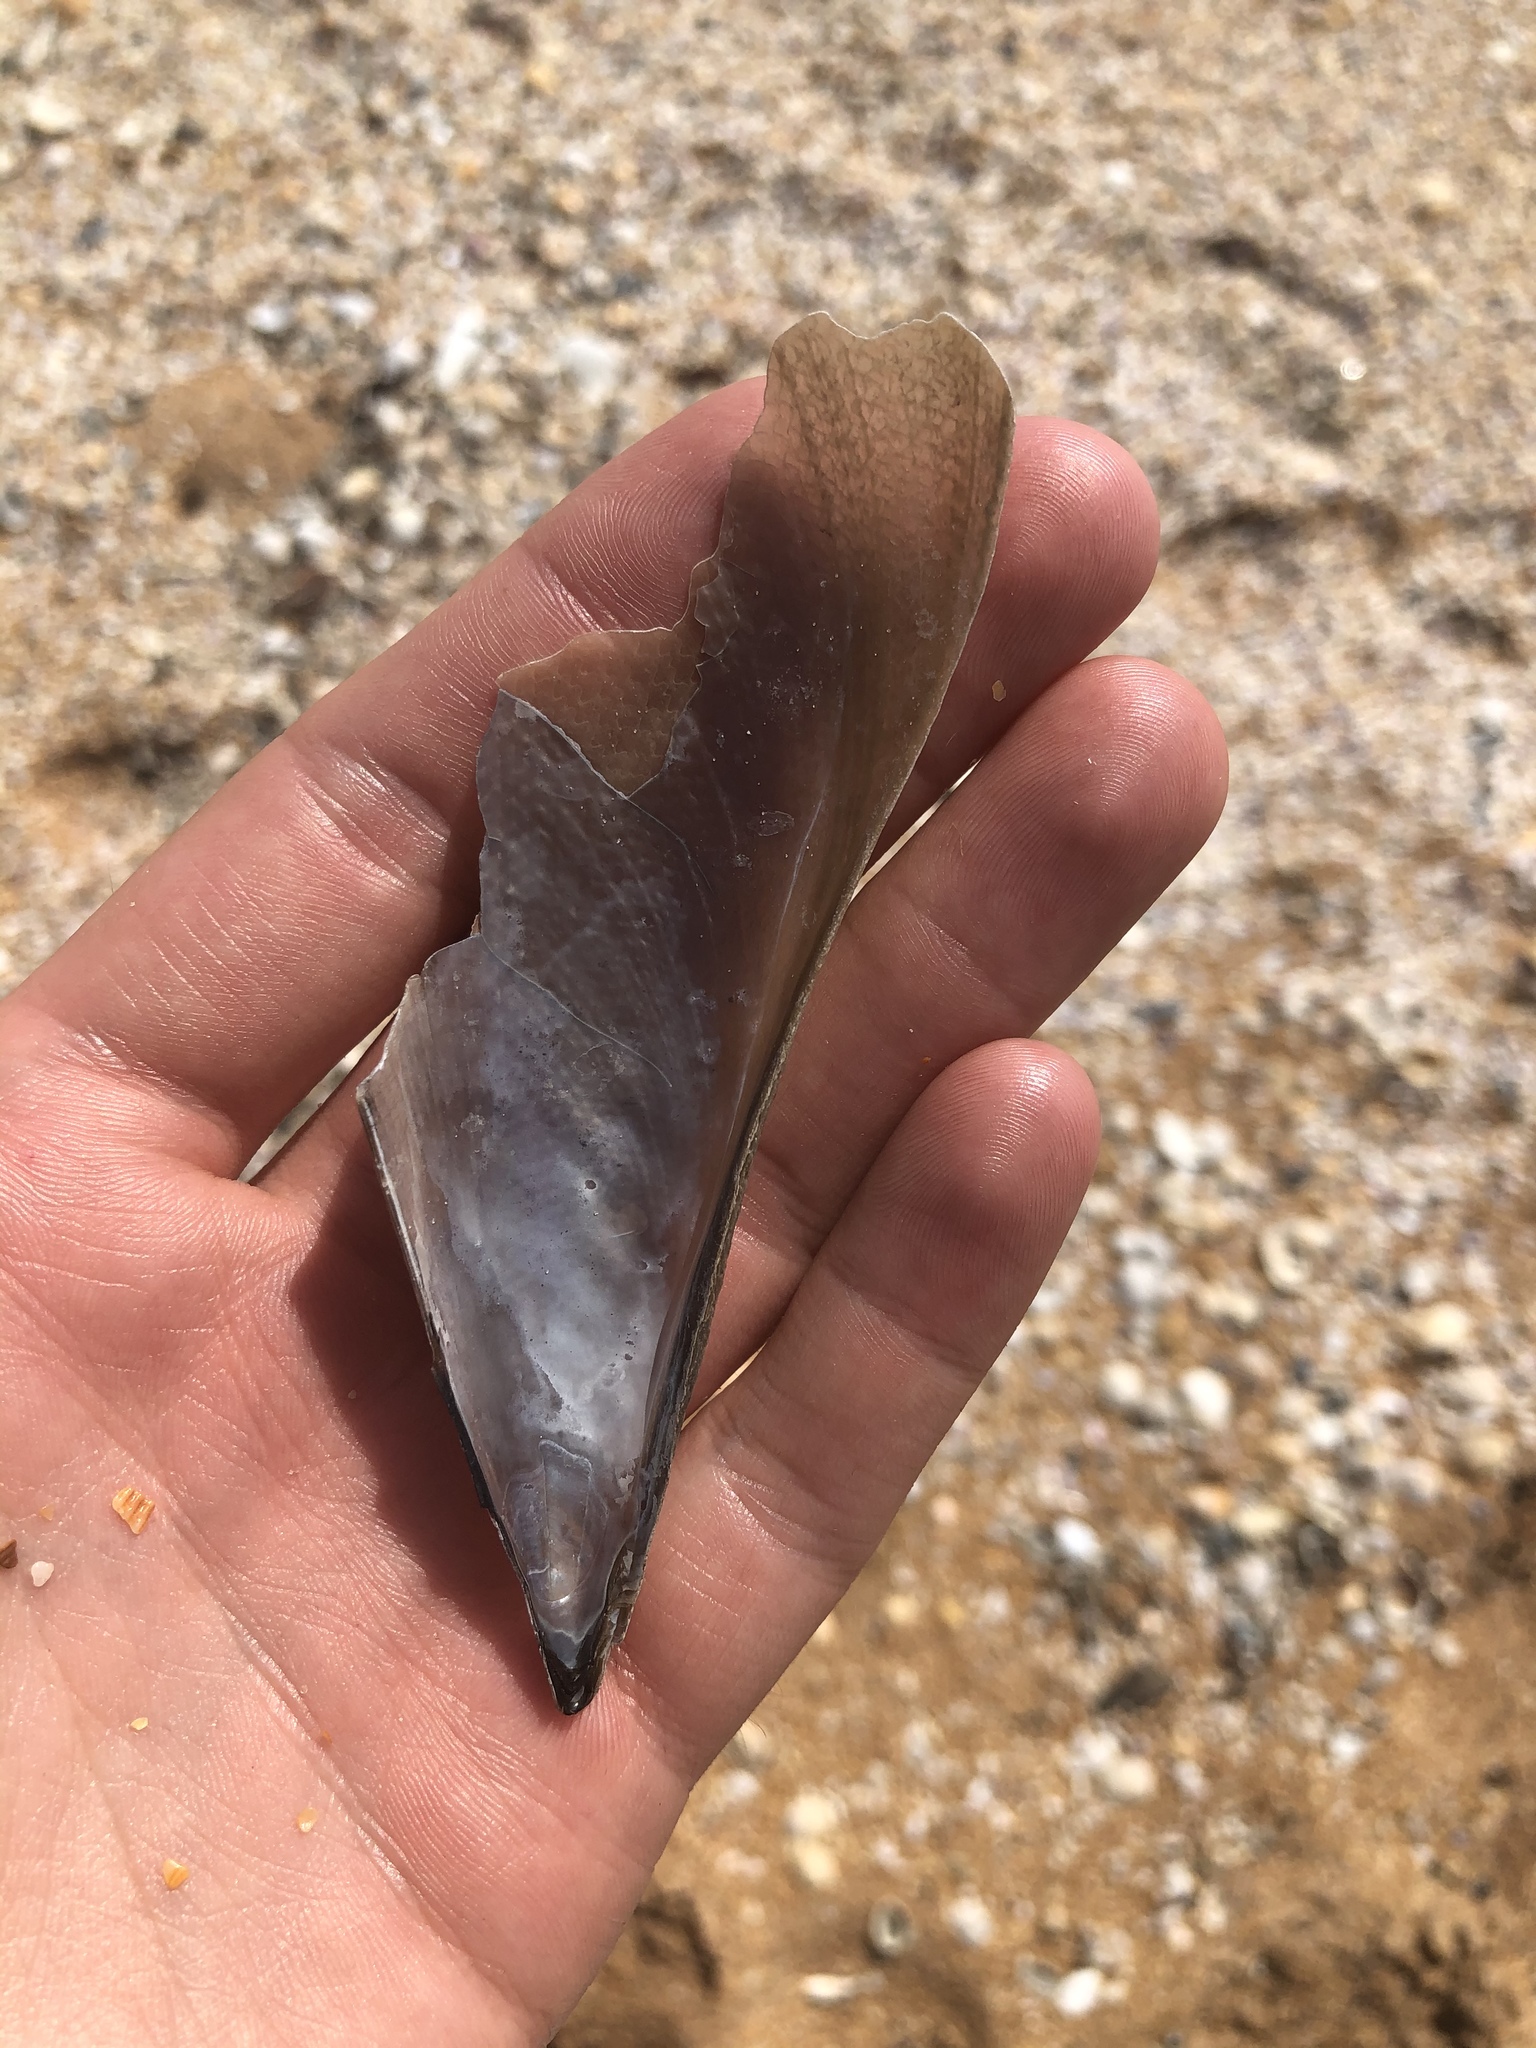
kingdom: Animalia
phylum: Mollusca
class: Bivalvia
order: Ostreida
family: Pinnidae
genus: Atrina
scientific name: Atrina serrata
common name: Saw-toothed penshell
